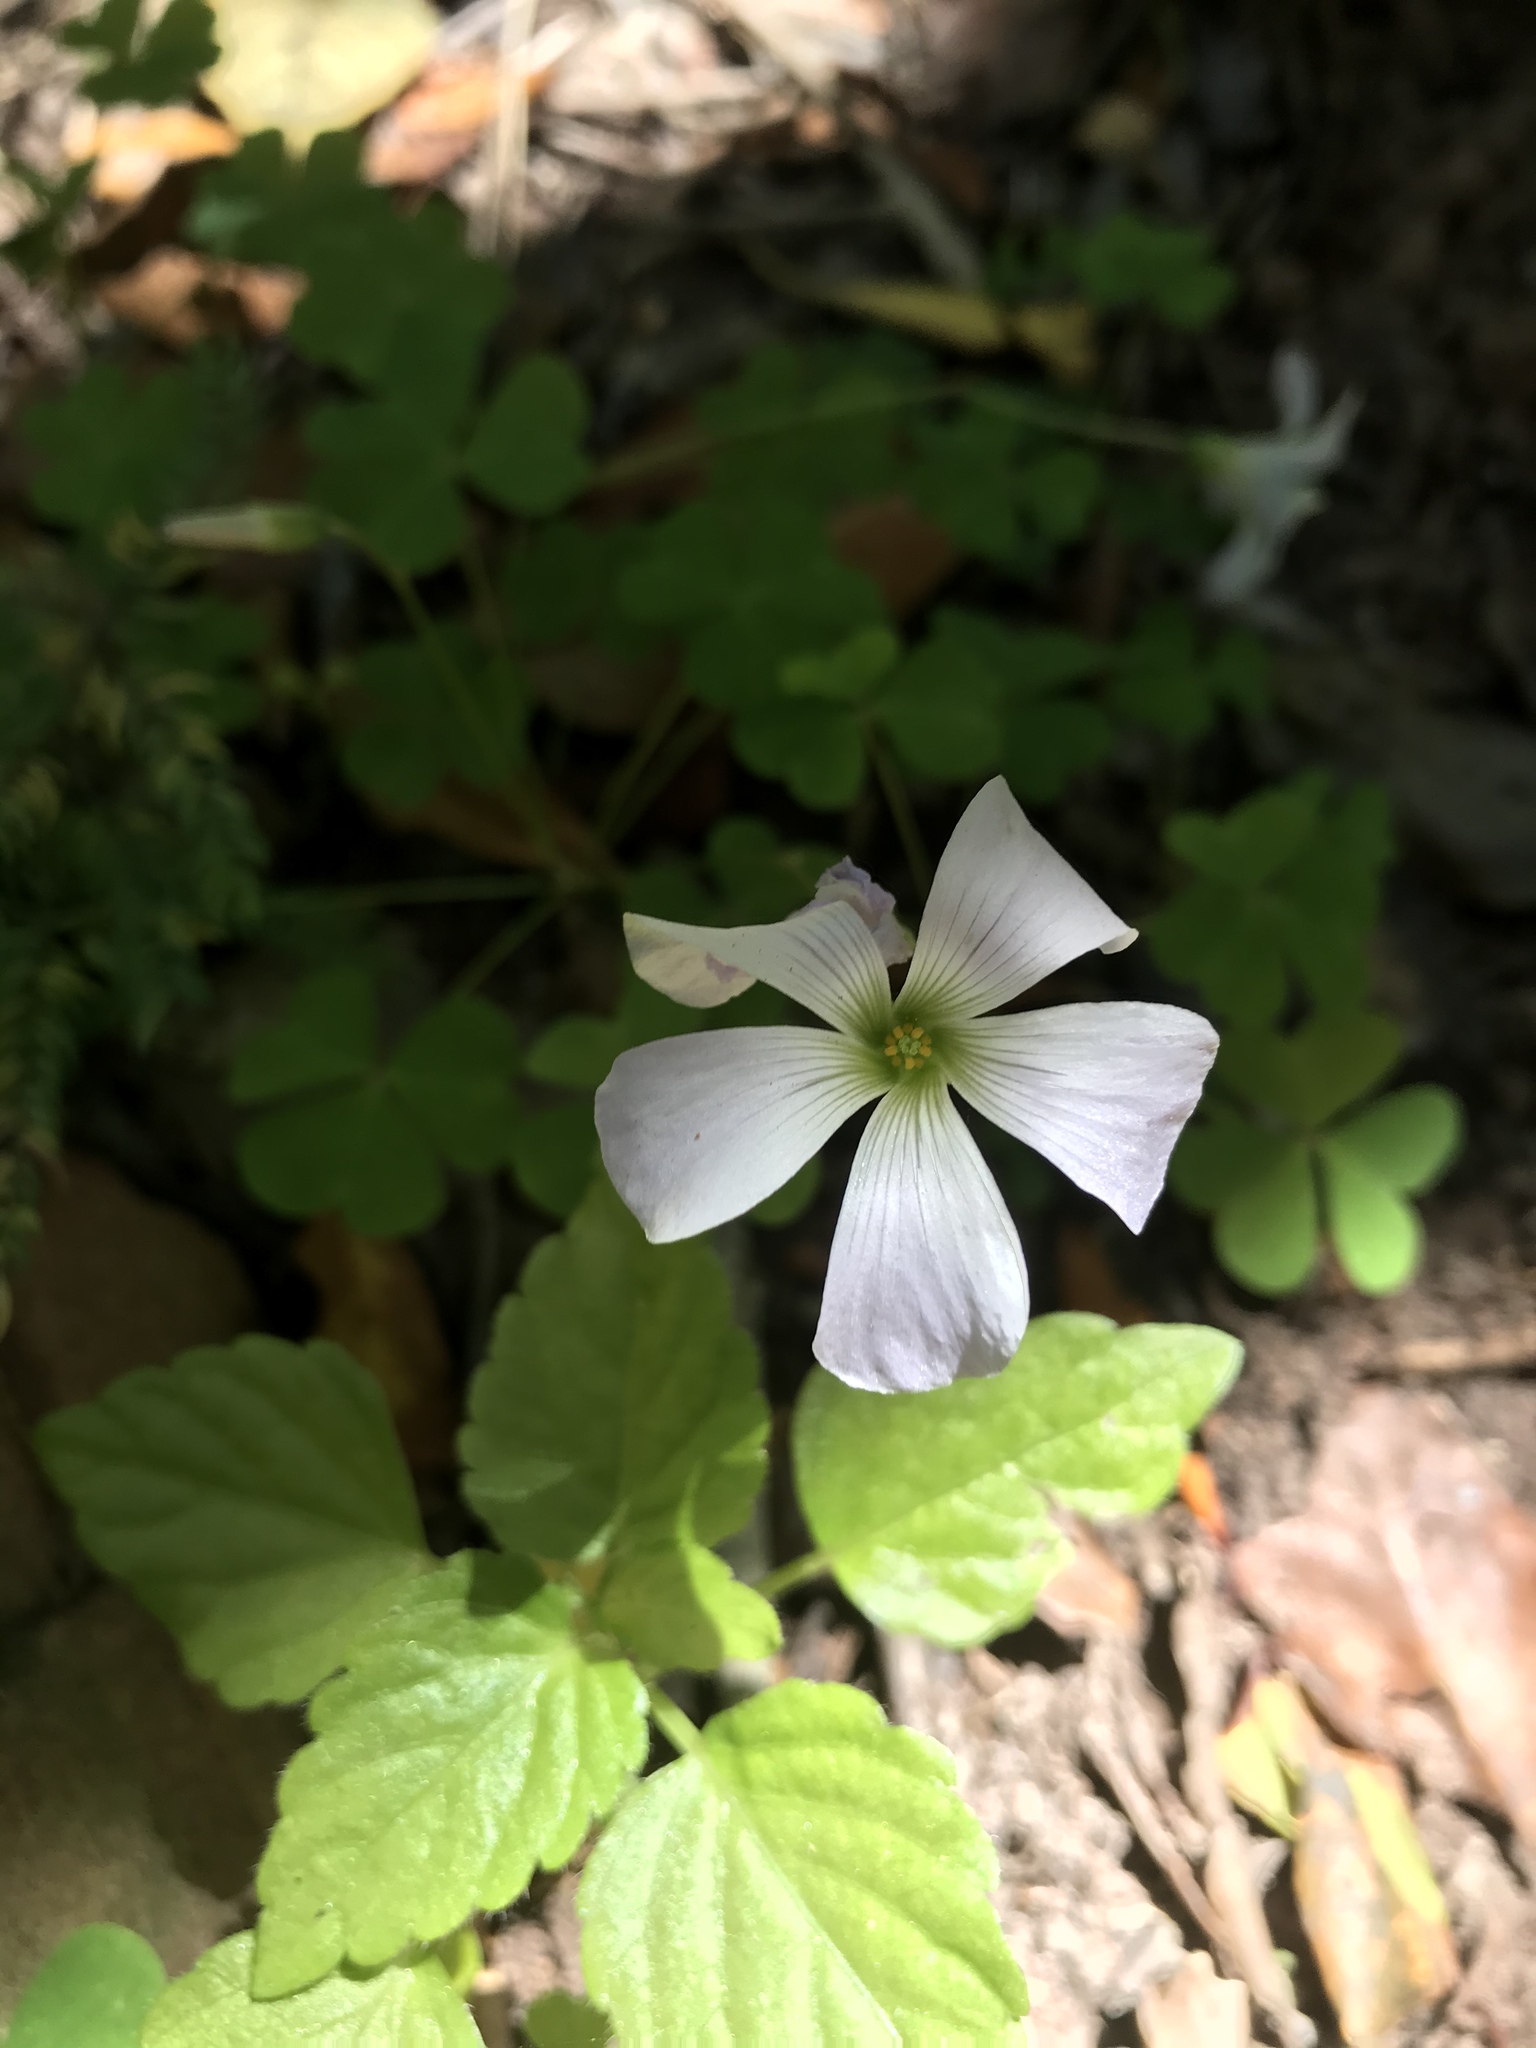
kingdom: Plantae
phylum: Tracheophyta
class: Magnoliopsida
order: Oxalidales
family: Oxalidaceae
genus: Oxalis
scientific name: Oxalis incarnata
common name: Pale pink-sorrel
